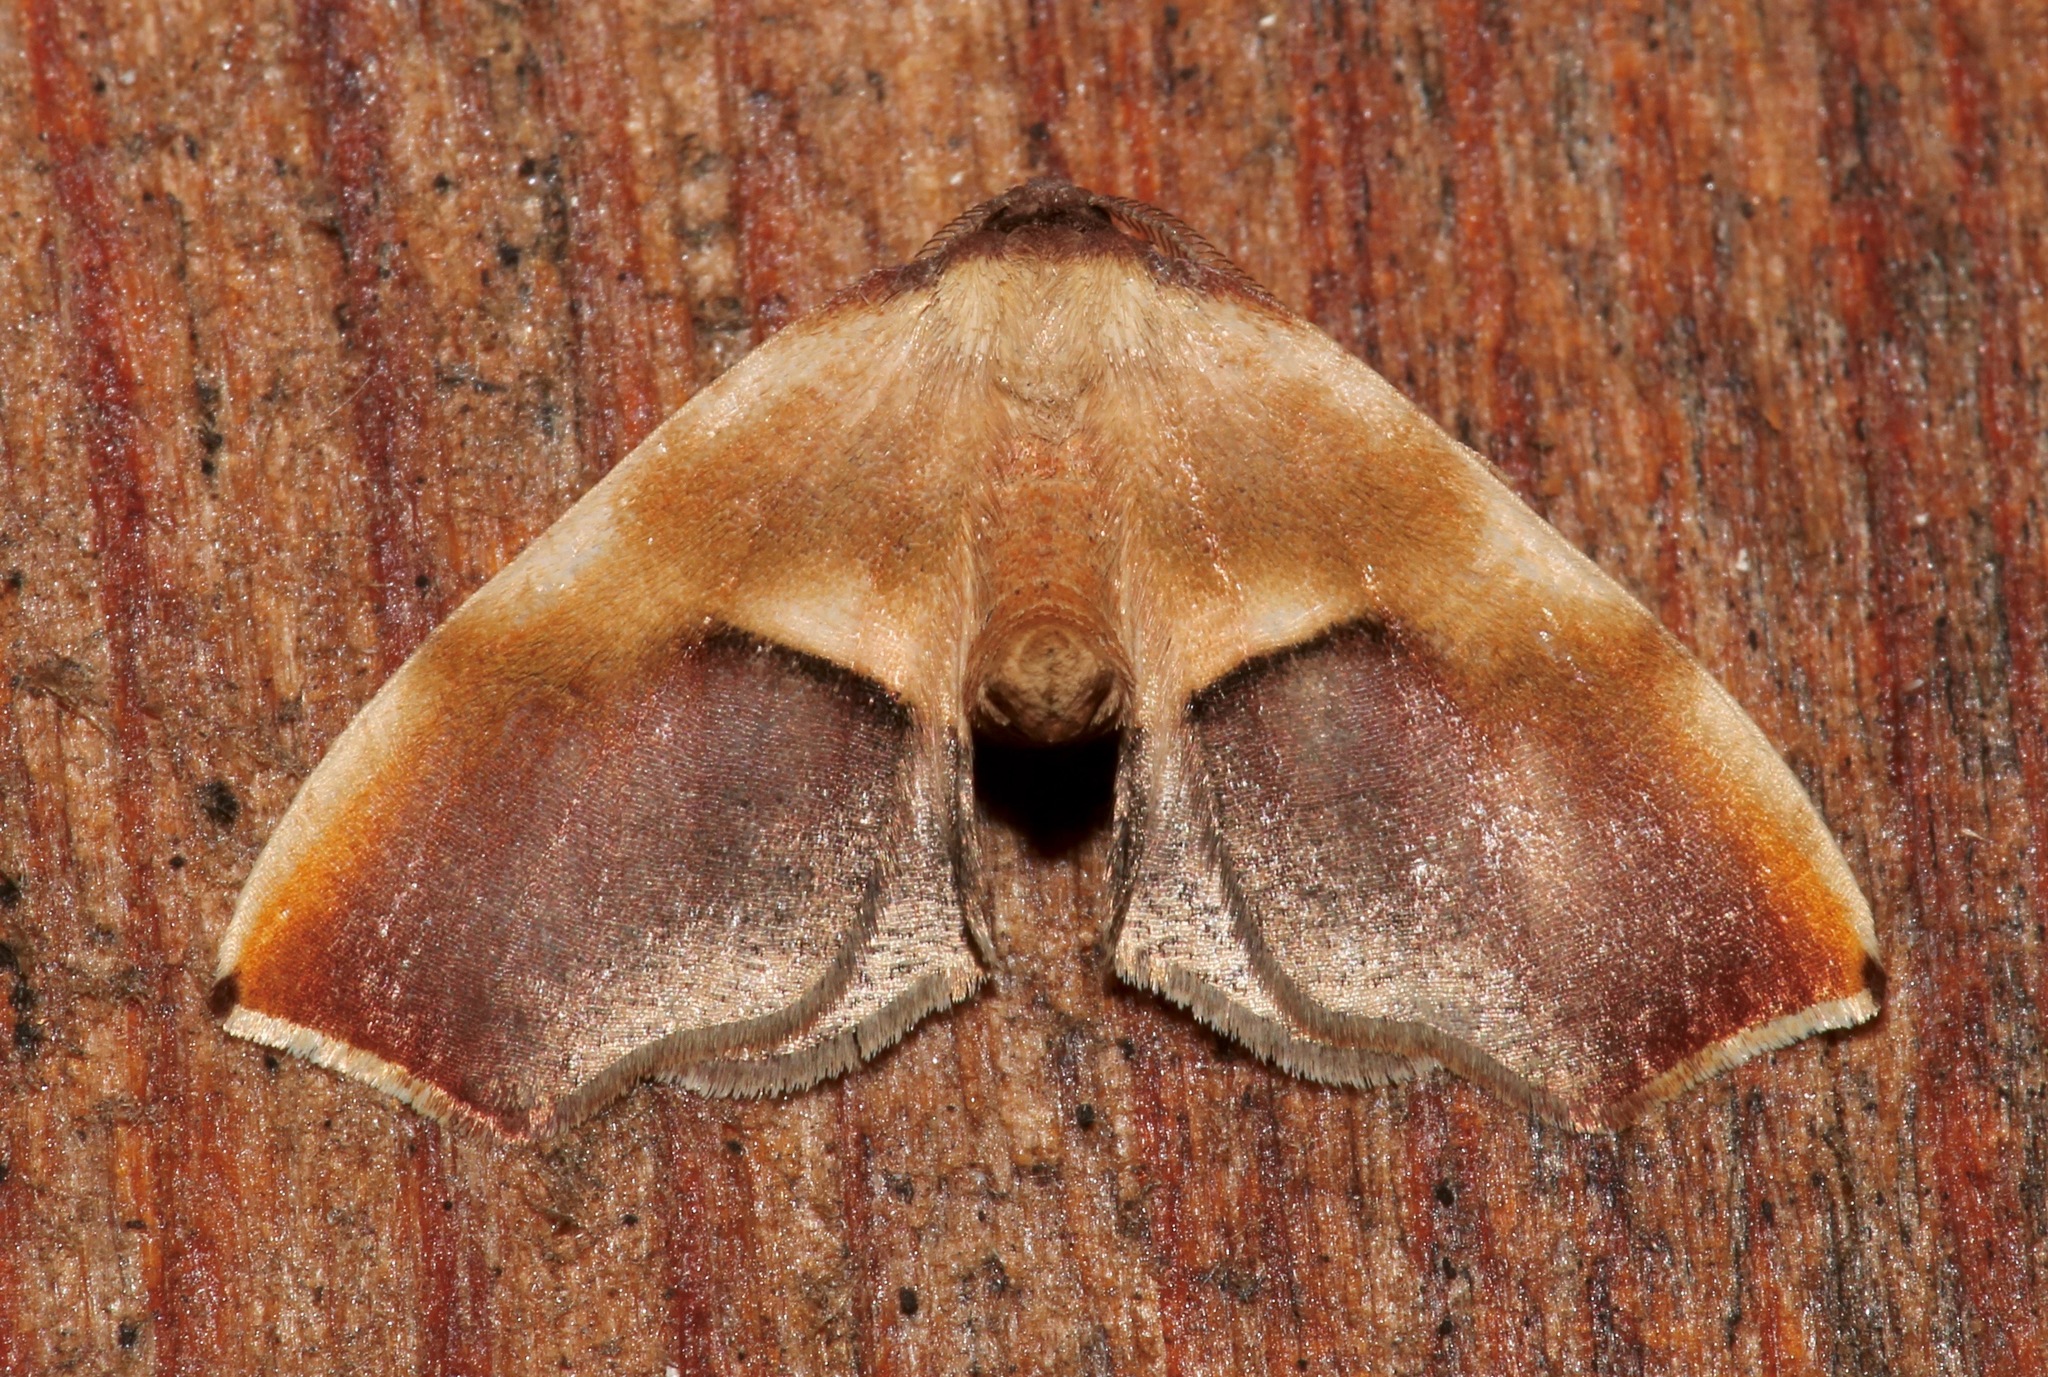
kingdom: Animalia
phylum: Arthropoda
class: Insecta
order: Lepidoptera
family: Geometridae
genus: Plagodis
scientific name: Plagodis kuetzingi
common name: Purple plagodis
